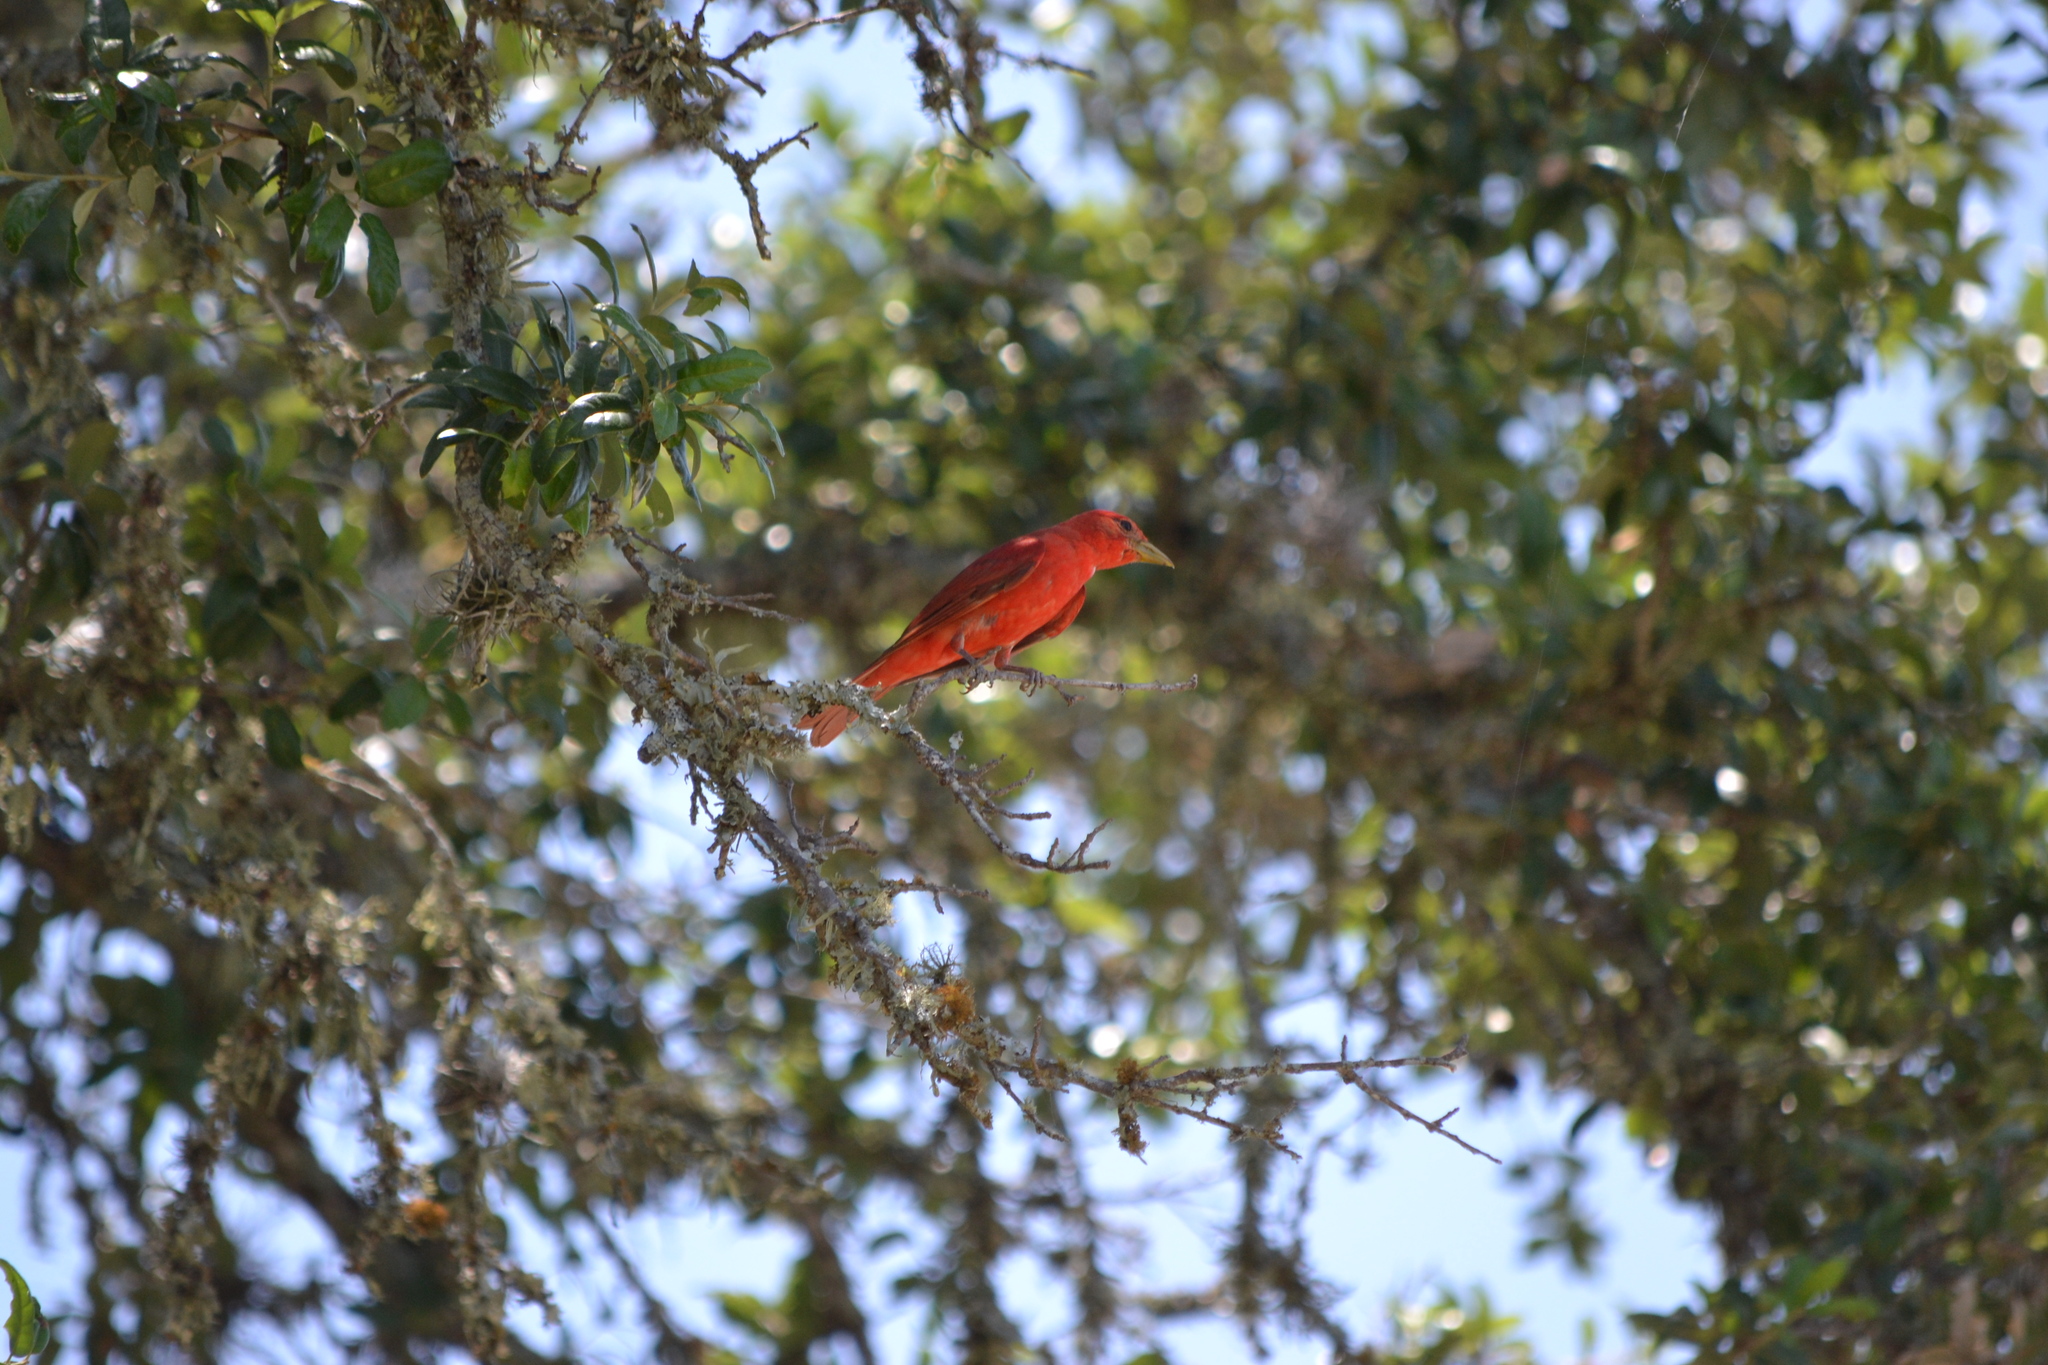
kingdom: Animalia
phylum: Chordata
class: Aves
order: Passeriformes
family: Cardinalidae
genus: Piranga
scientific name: Piranga rubra
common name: Summer tanager
